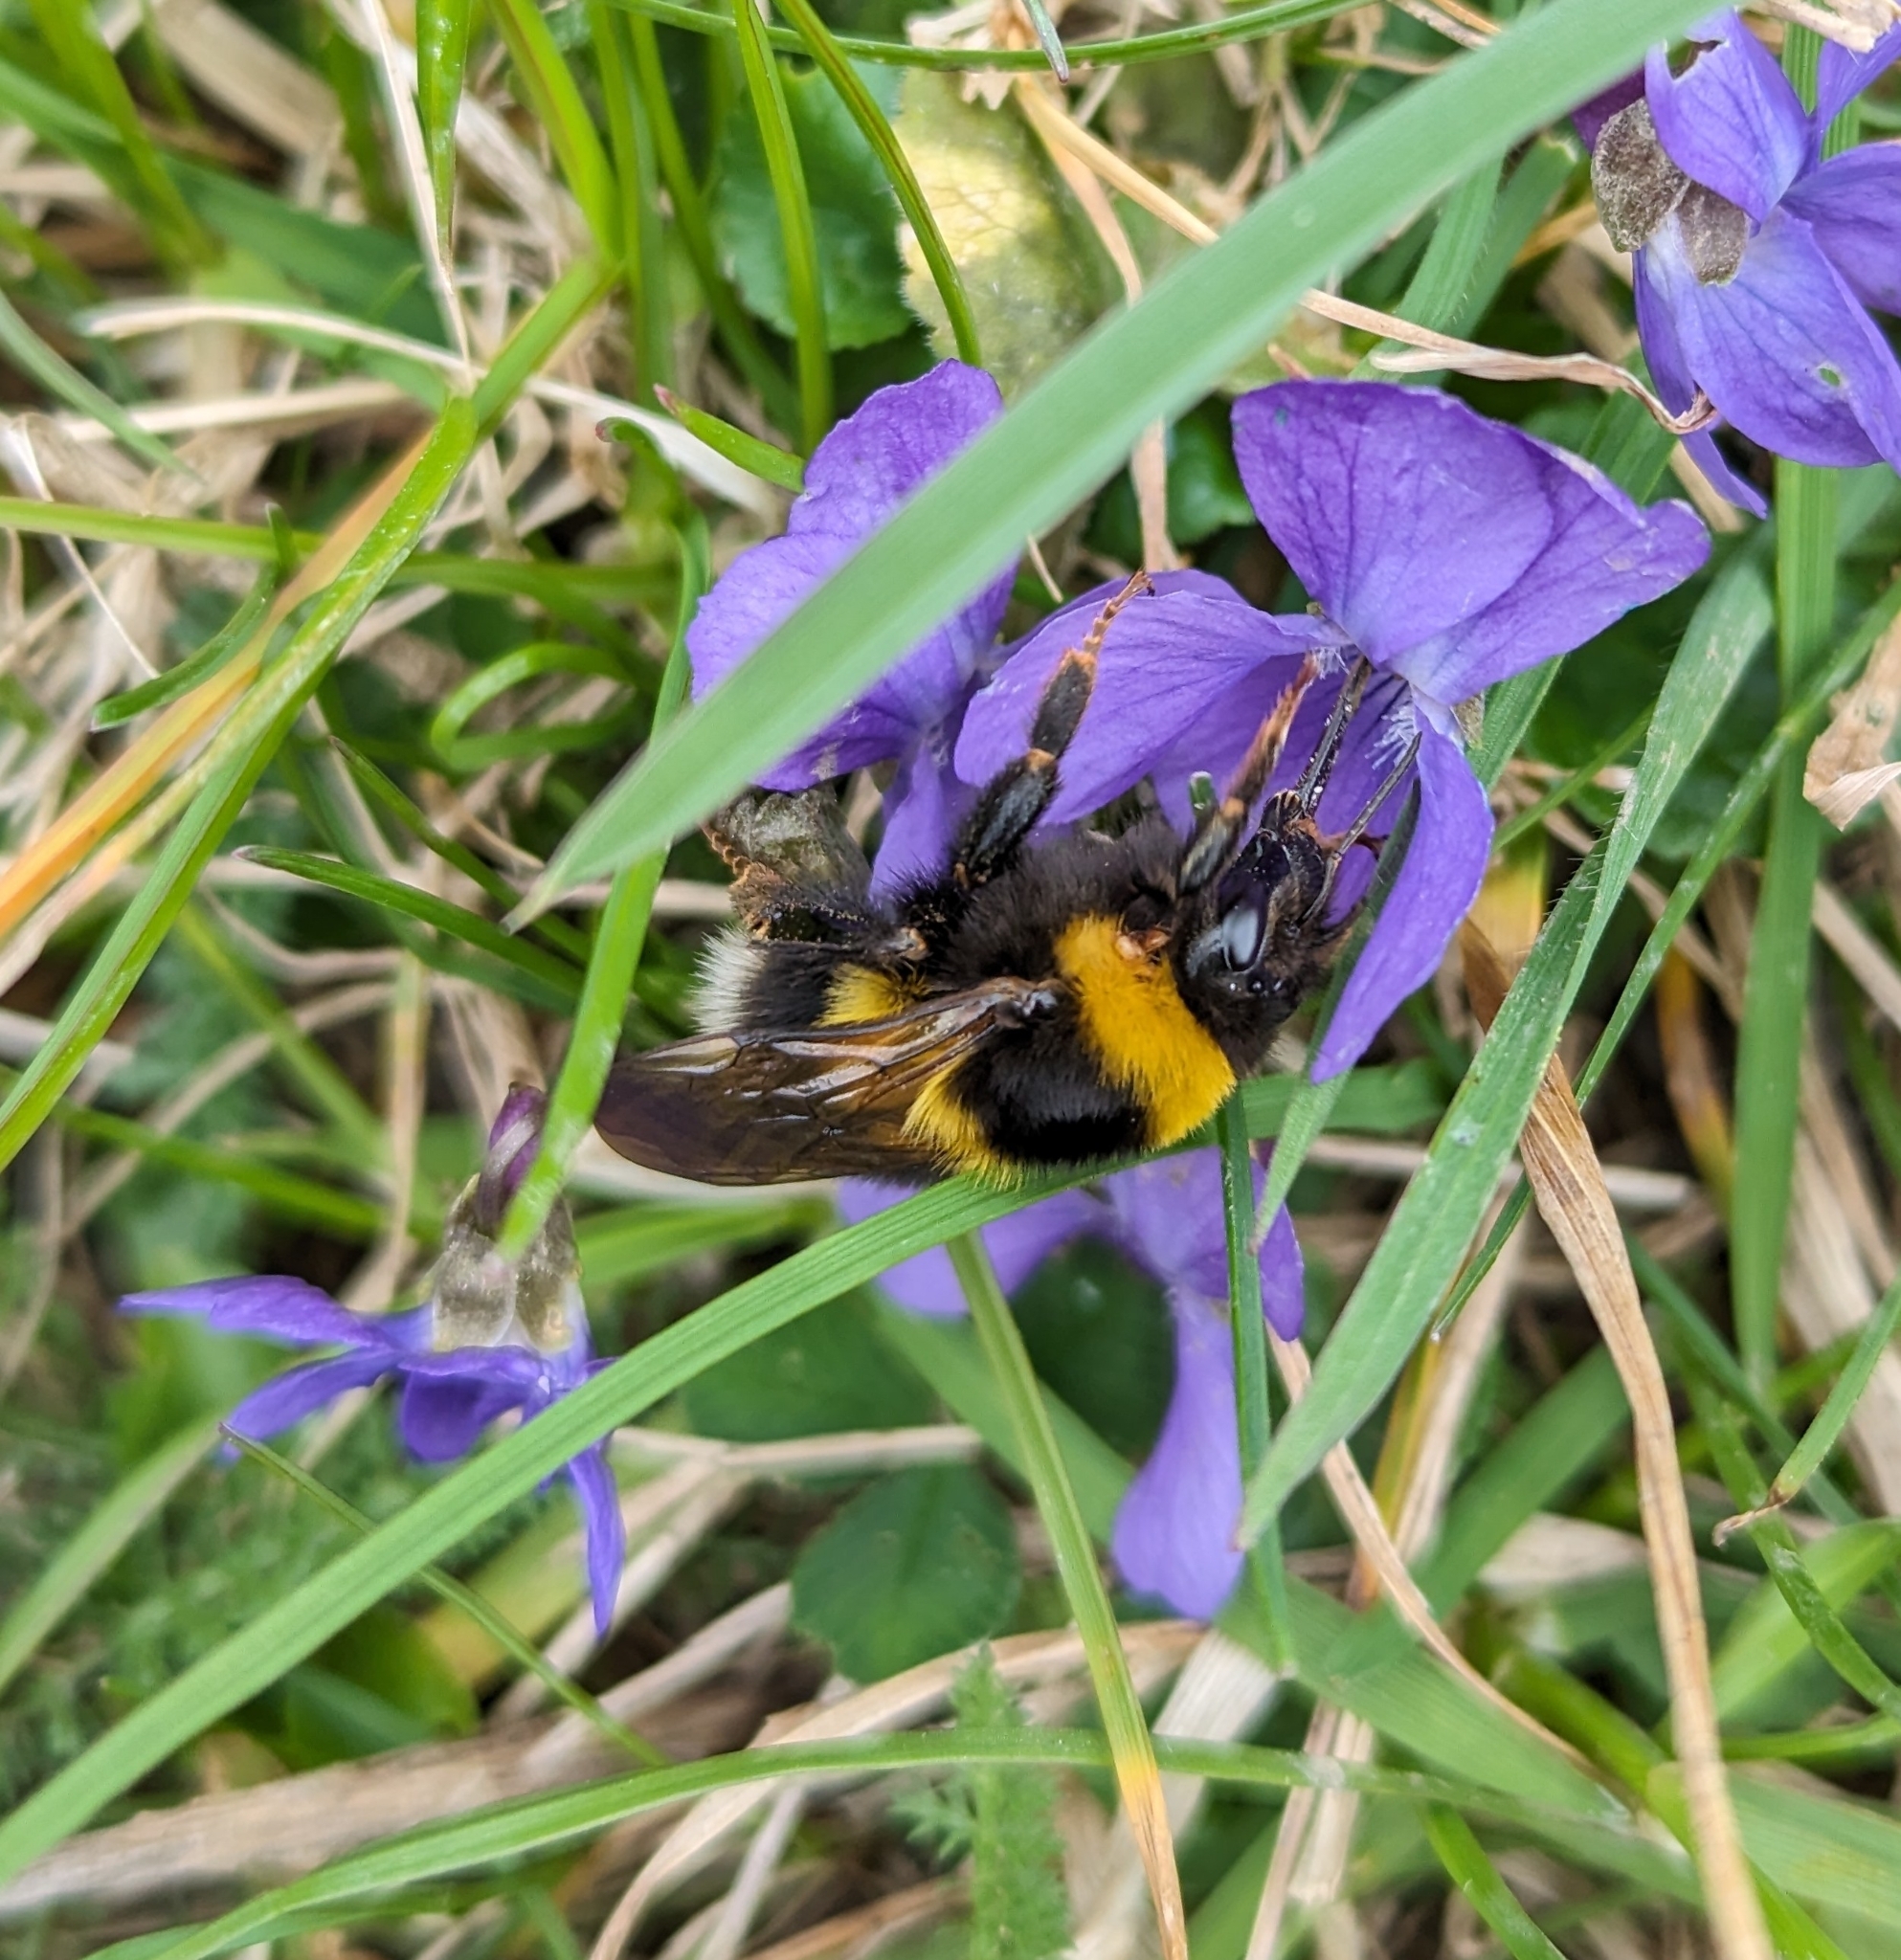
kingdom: Animalia
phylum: Arthropoda
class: Insecta
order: Hymenoptera
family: Apidae
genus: Bombus
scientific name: Bombus hortorum
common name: Garden bumblebee
